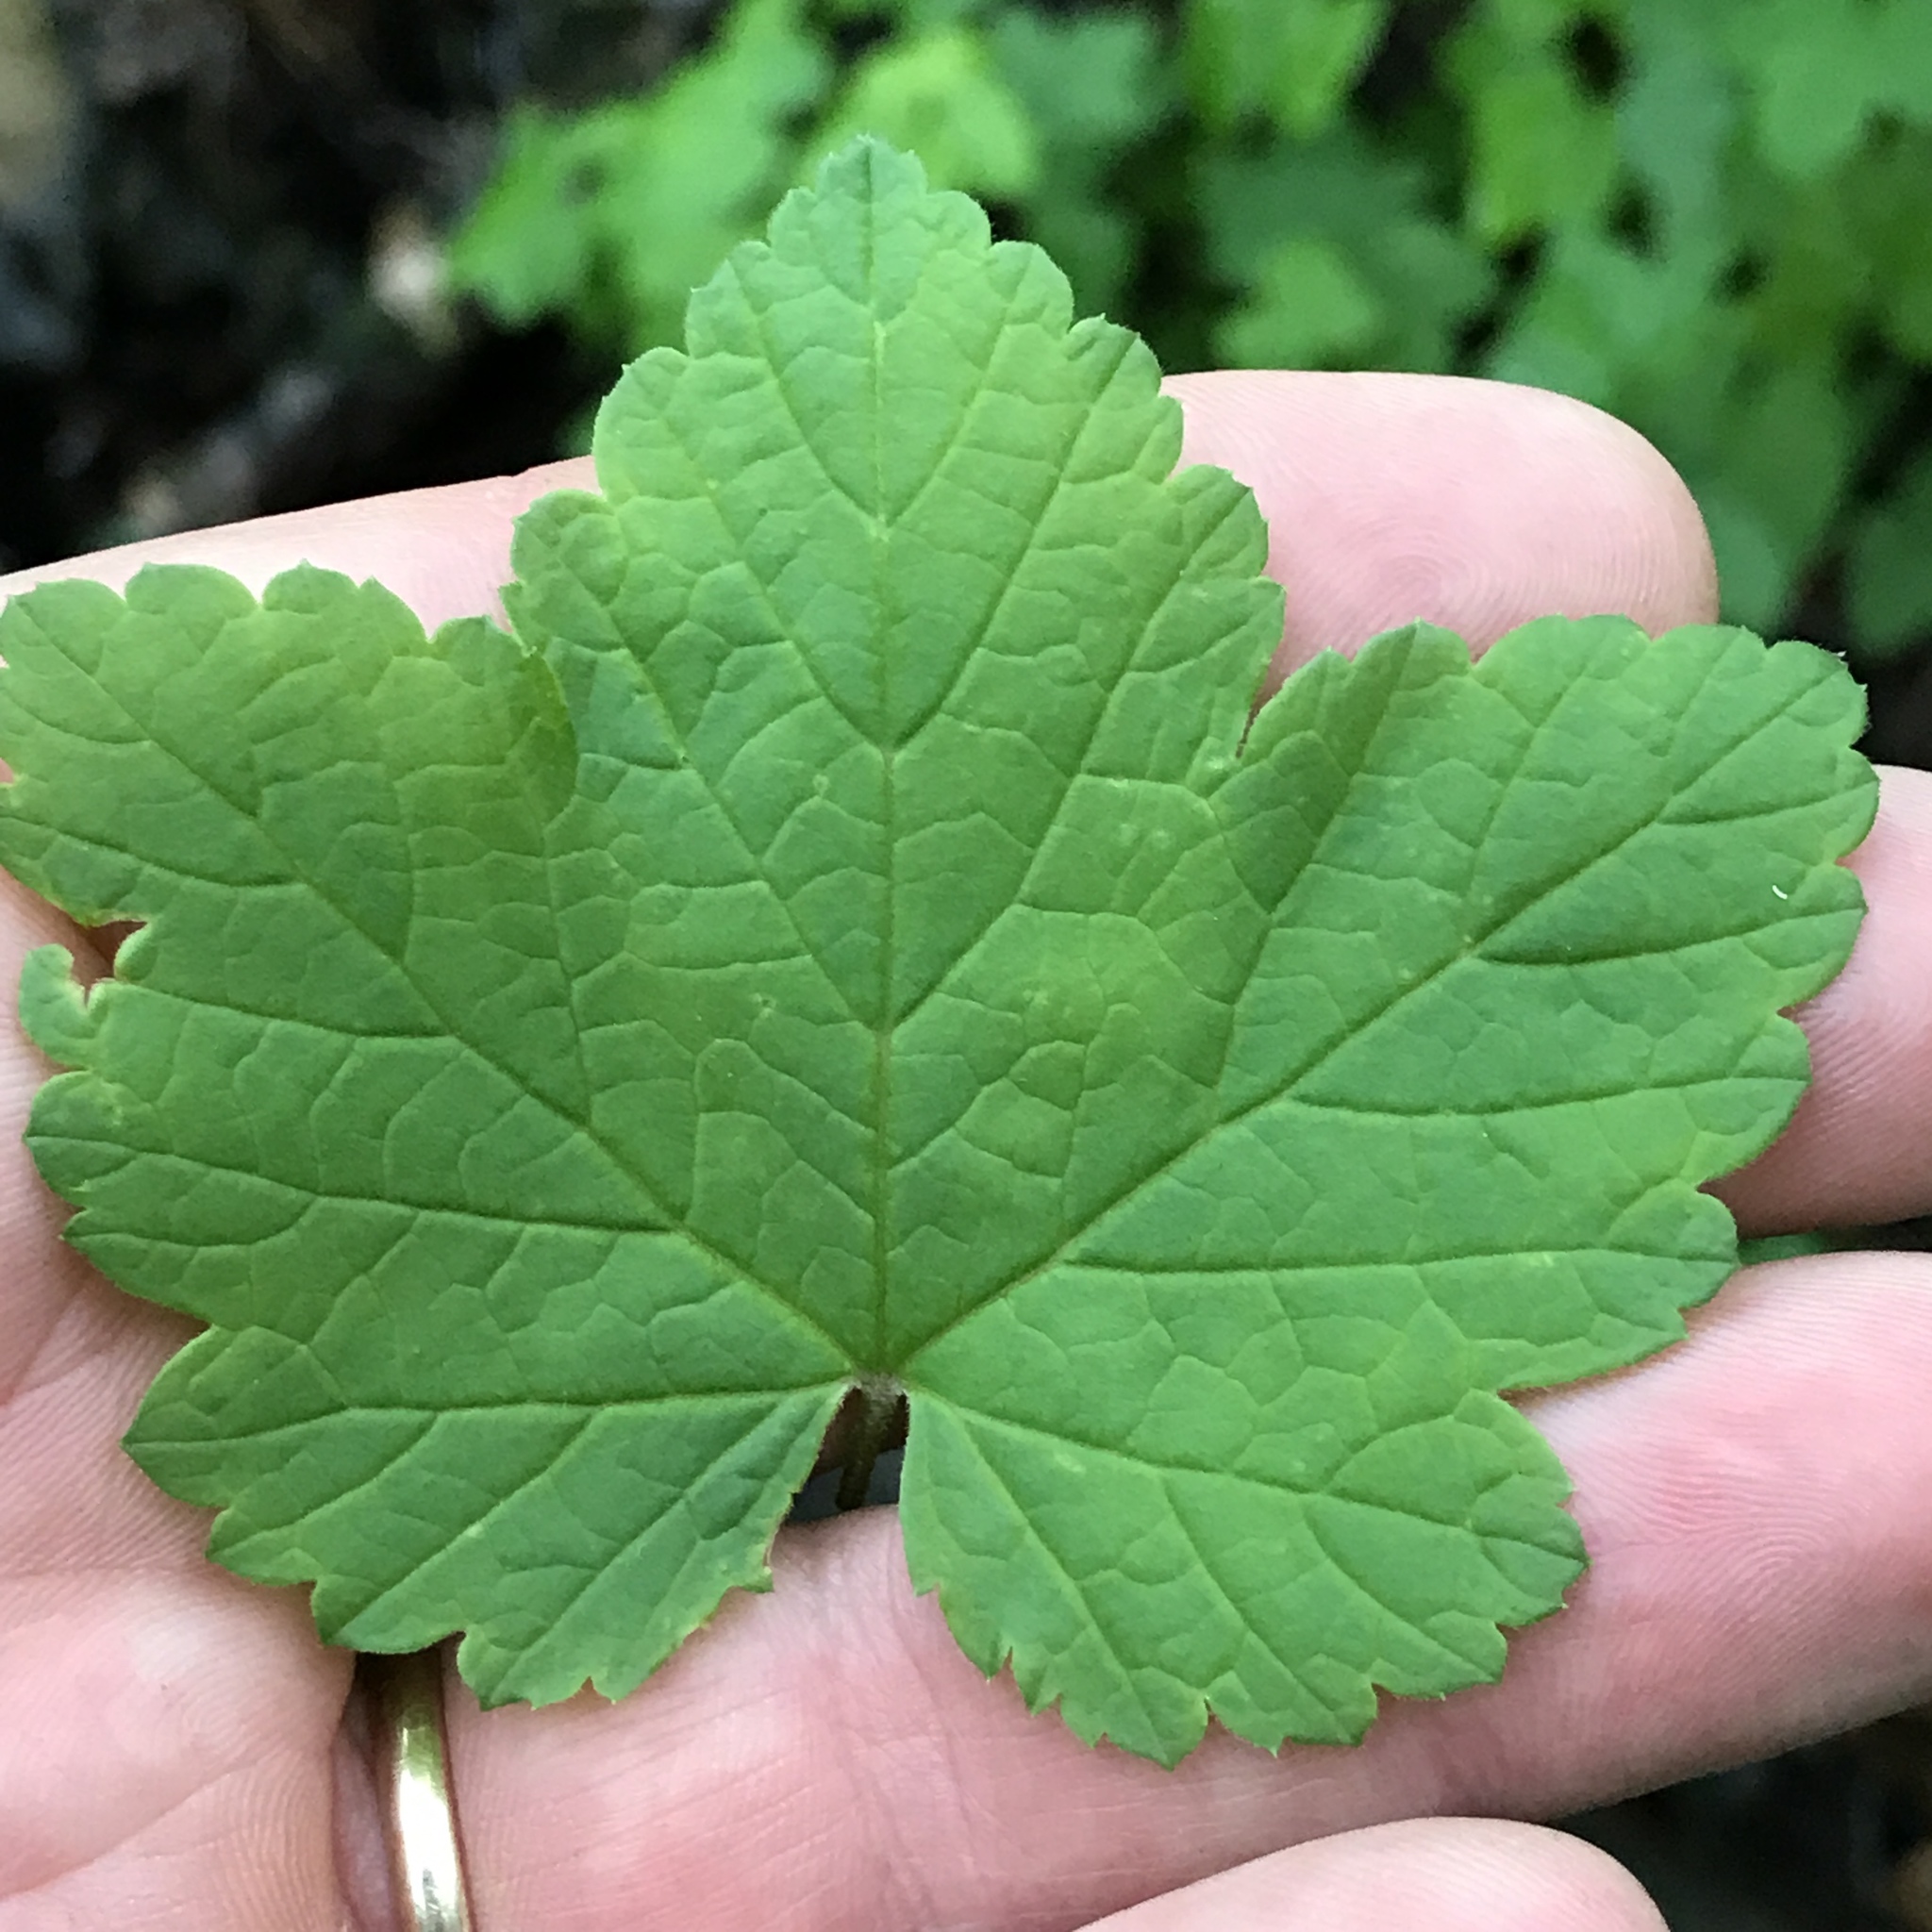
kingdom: Plantae
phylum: Tracheophyta
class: Magnoliopsida
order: Saxifragales
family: Grossulariaceae
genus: Ribes
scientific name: Ribes rubrum
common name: Red currant
